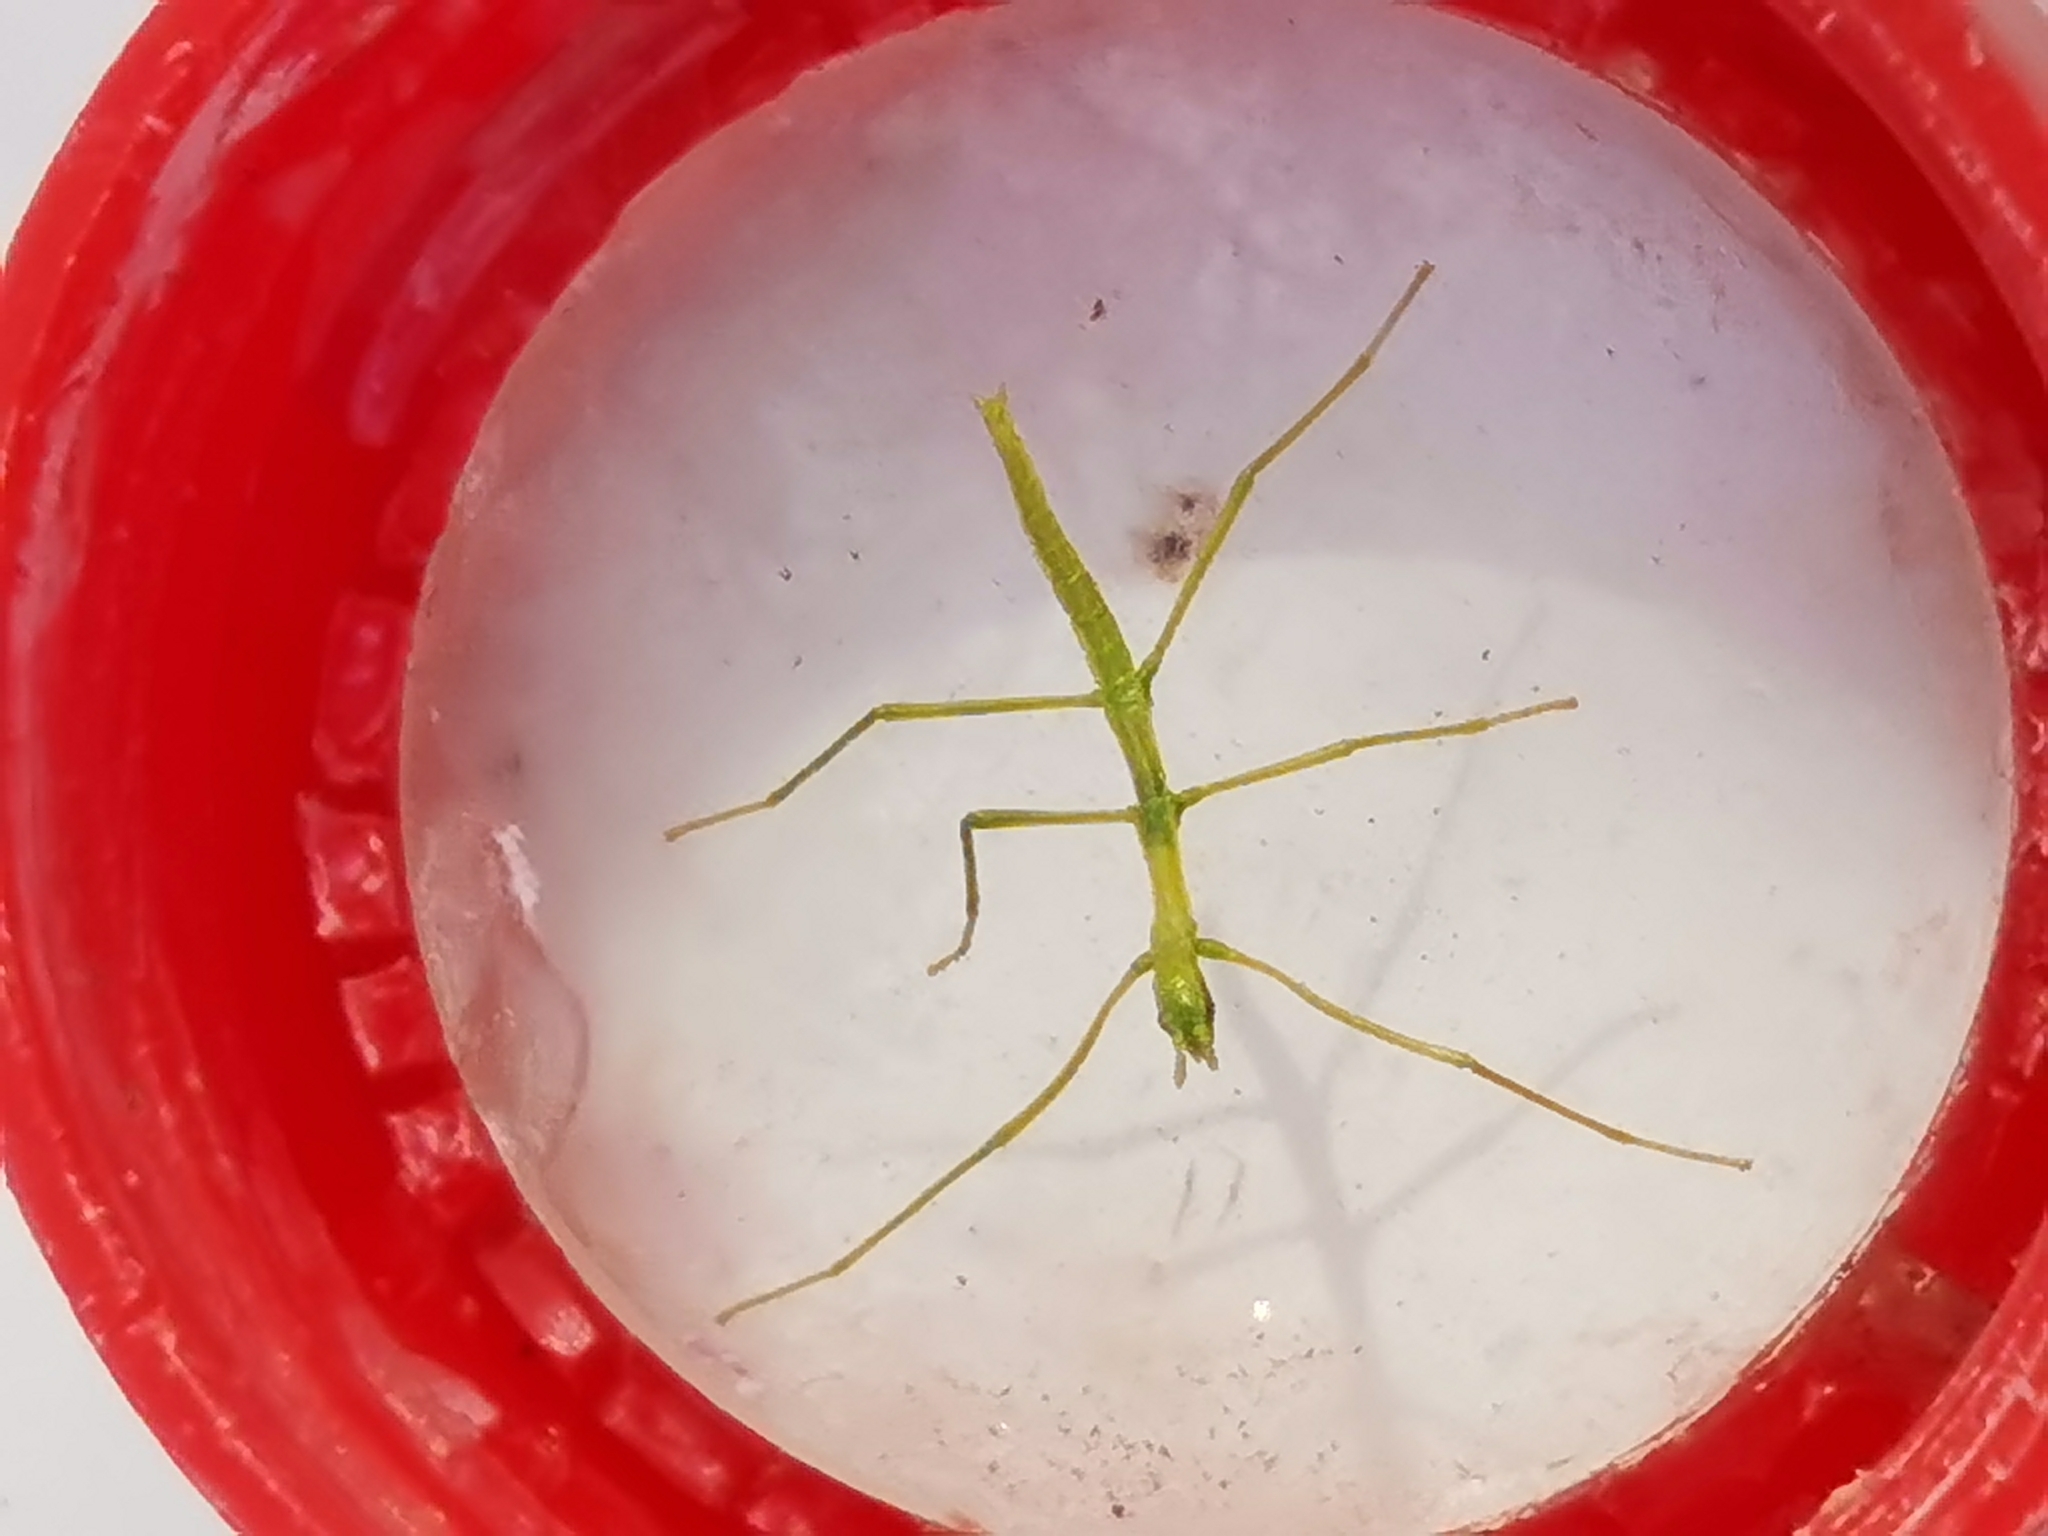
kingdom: Animalia
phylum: Arthropoda
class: Insecta
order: Phasmida
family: Bacillidae
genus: Clonopsis
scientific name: Clonopsis gallica
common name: French stick insect
